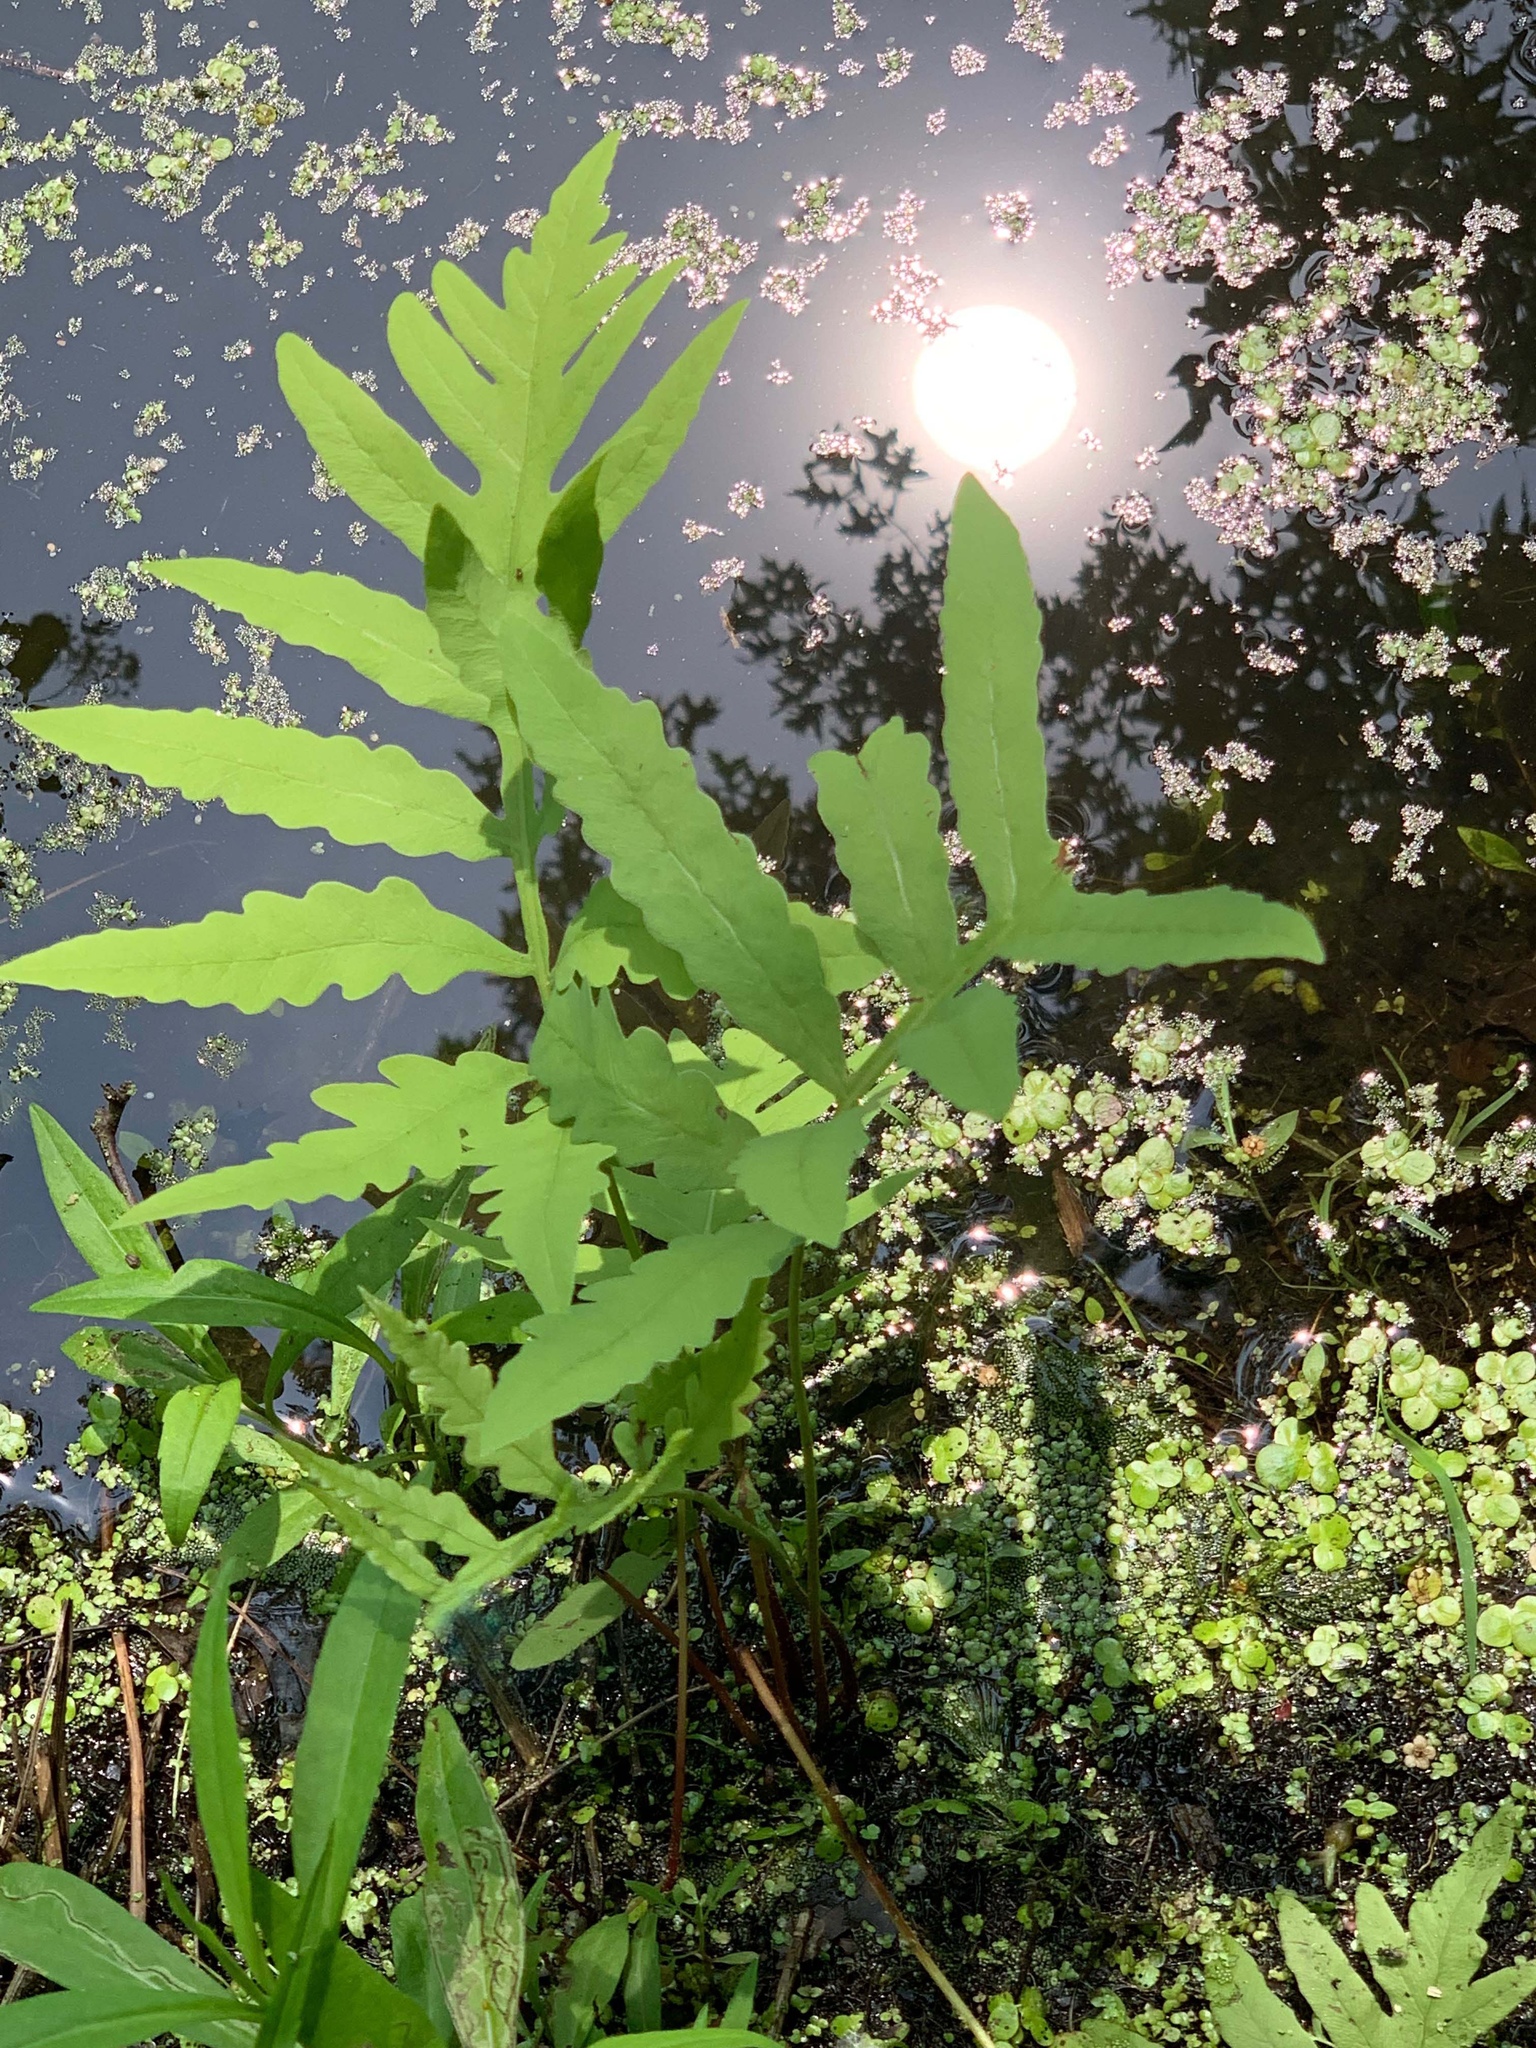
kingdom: Plantae
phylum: Tracheophyta
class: Polypodiopsida
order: Polypodiales
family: Onocleaceae
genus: Onoclea
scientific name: Onoclea sensibilis
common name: Sensitive fern
